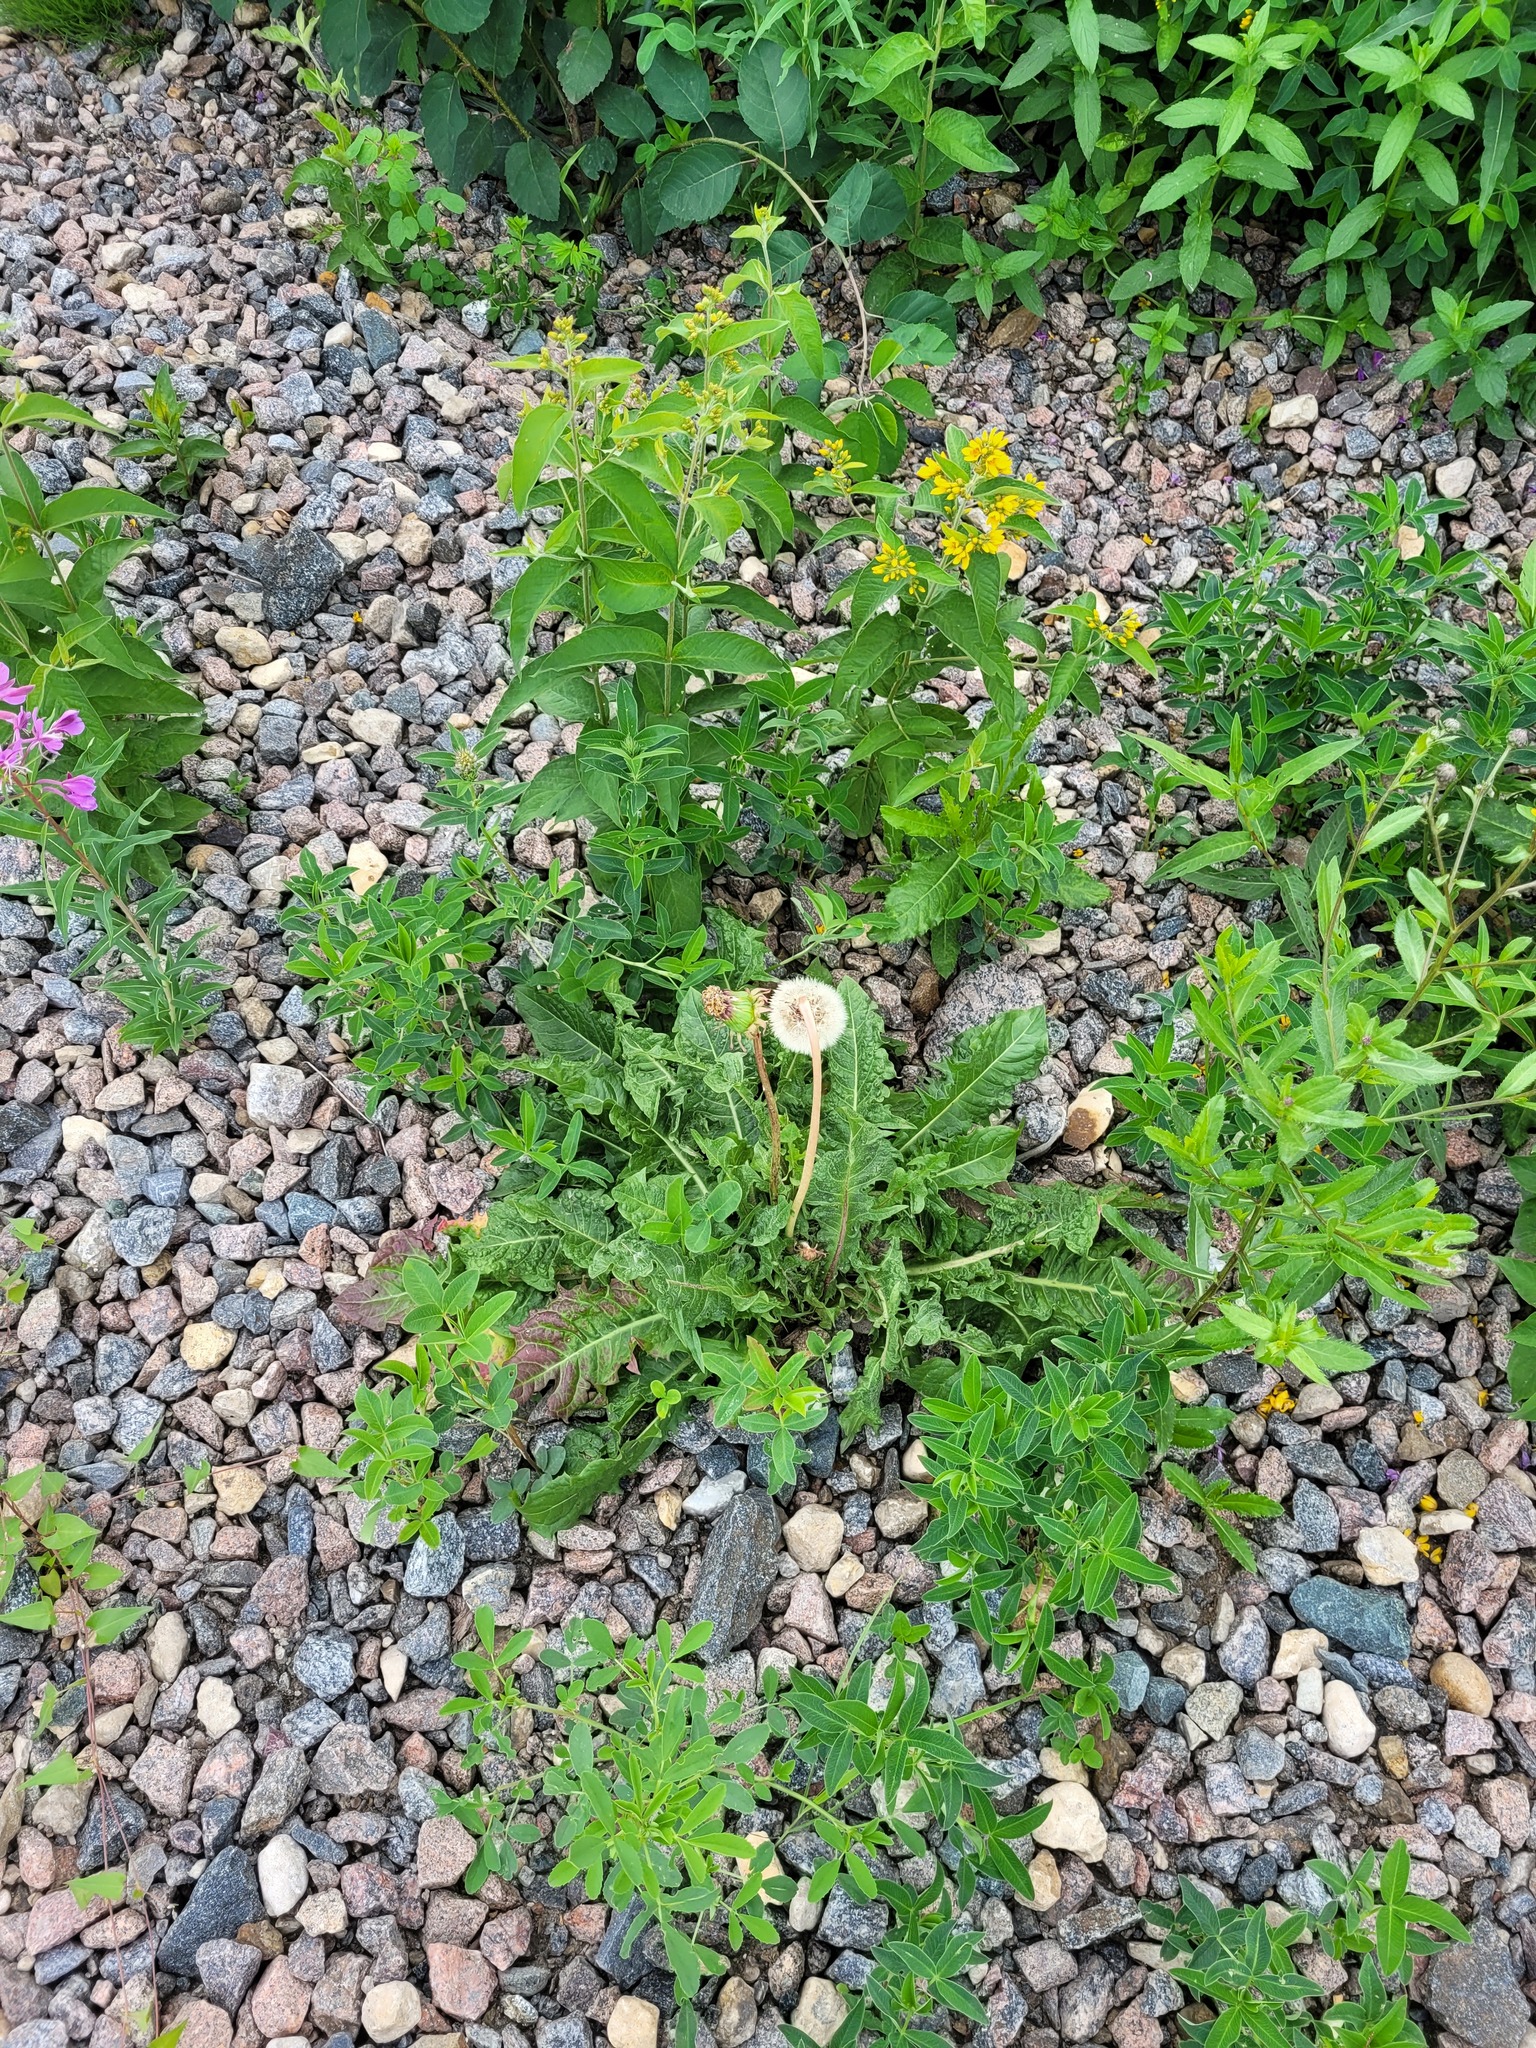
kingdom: Plantae
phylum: Tracheophyta
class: Magnoliopsida
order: Asterales
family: Asteraceae
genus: Taraxacum
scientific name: Taraxacum officinale
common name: Common dandelion
